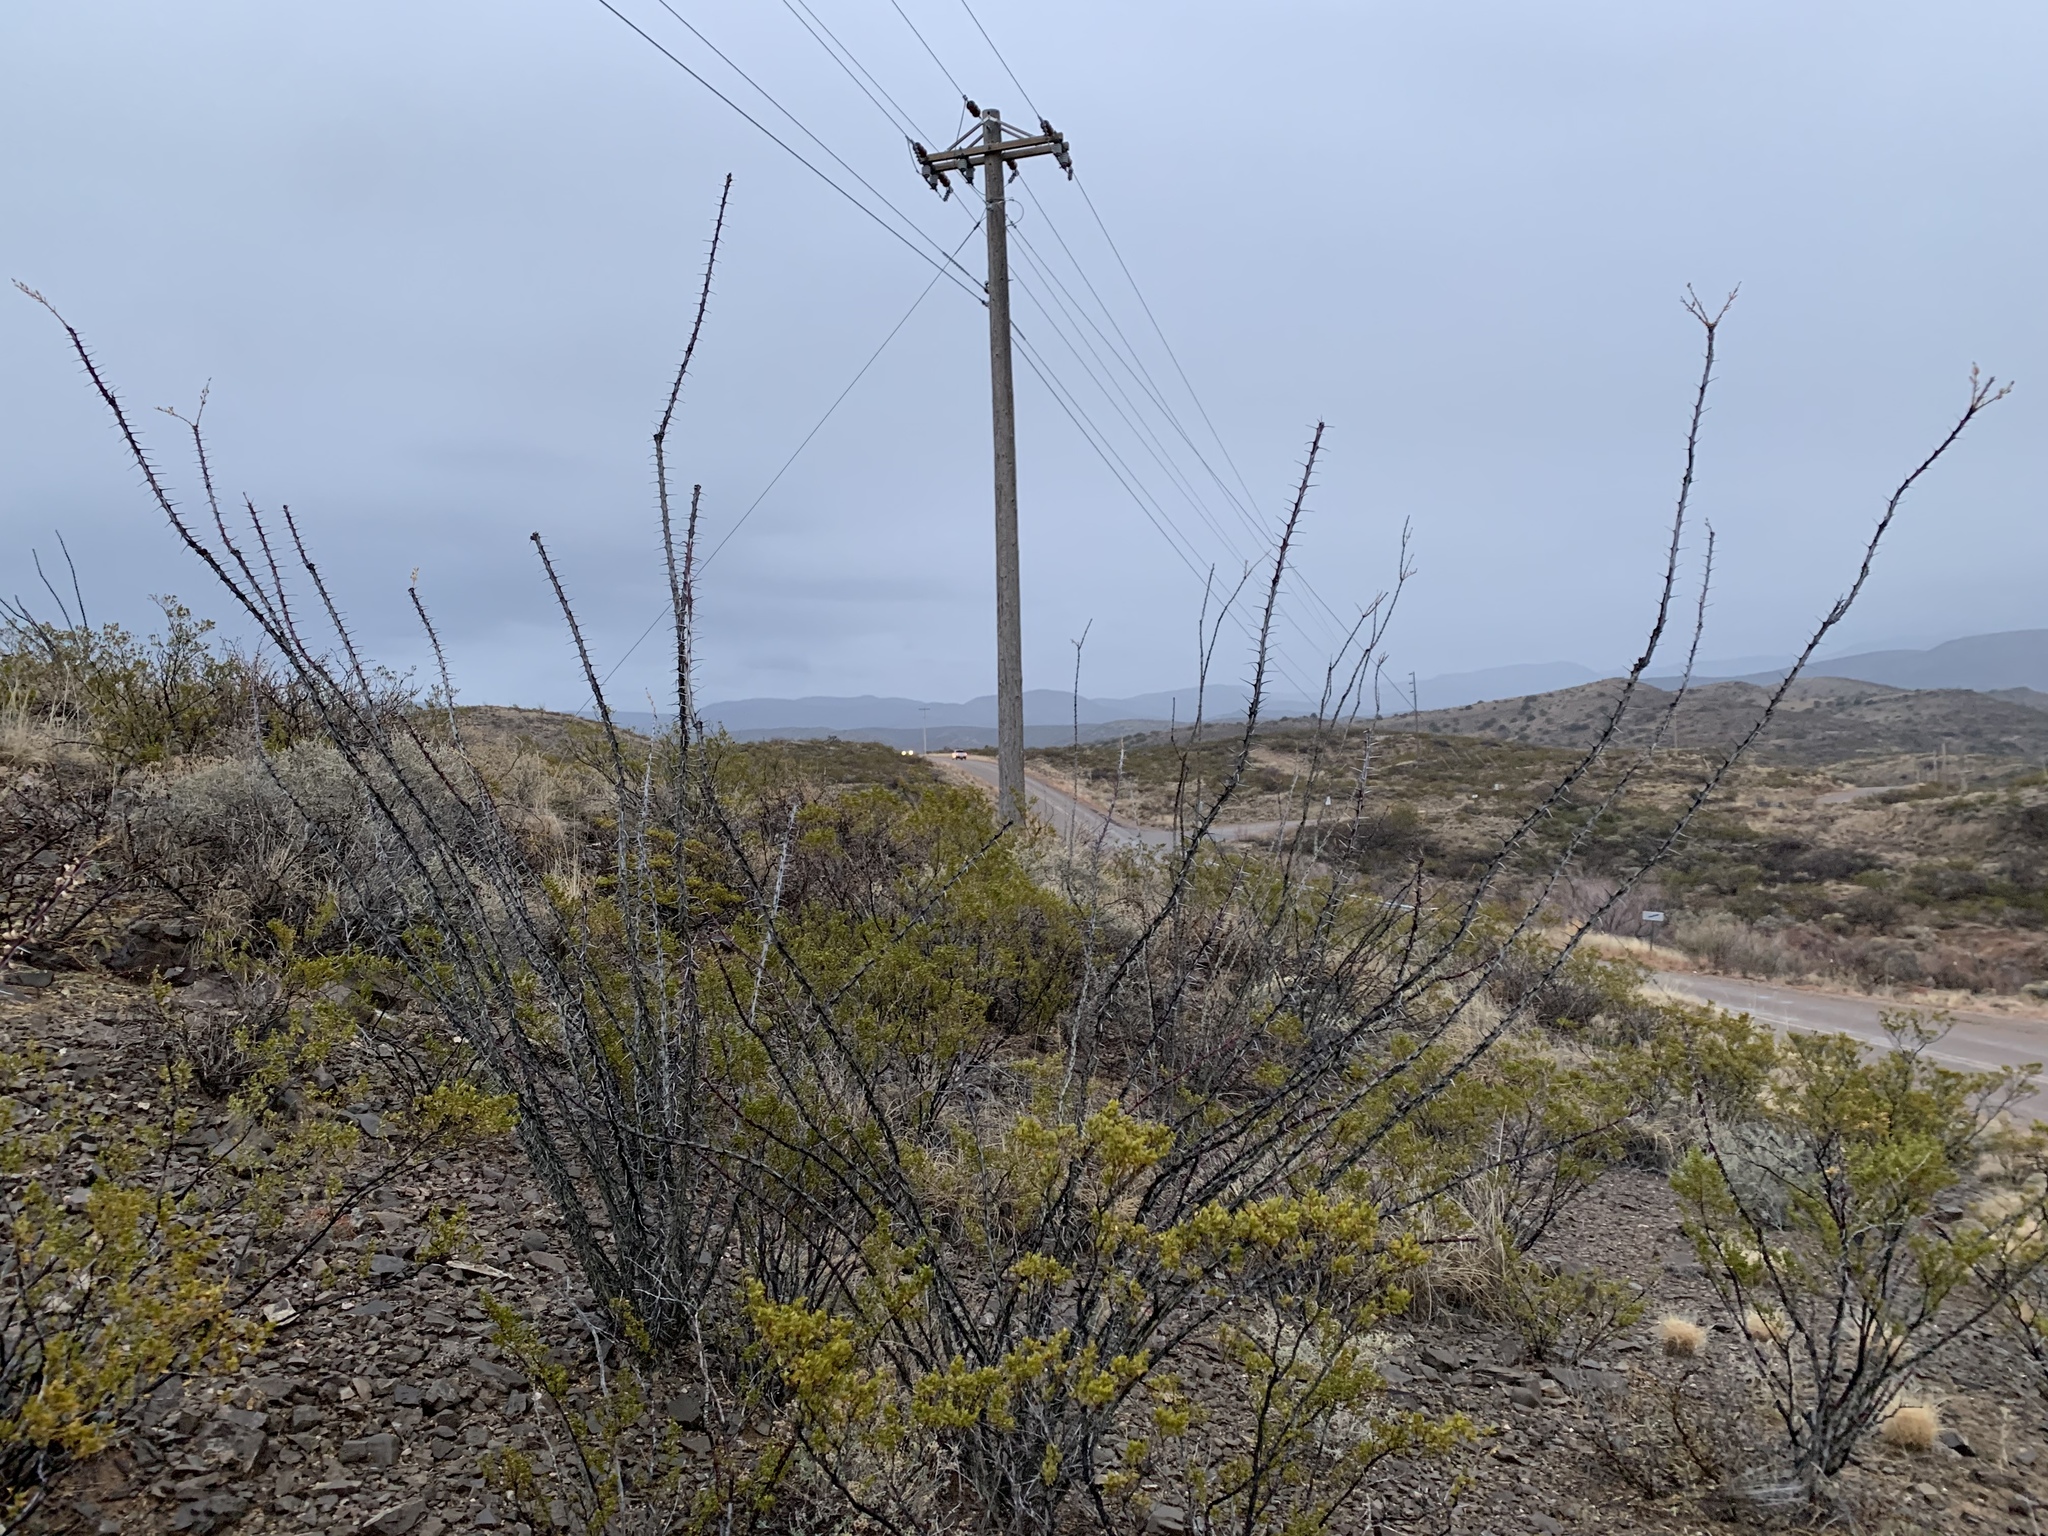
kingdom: Plantae
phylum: Tracheophyta
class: Magnoliopsida
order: Ericales
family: Fouquieriaceae
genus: Fouquieria
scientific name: Fouquieria splendens
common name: Vine-cactus
